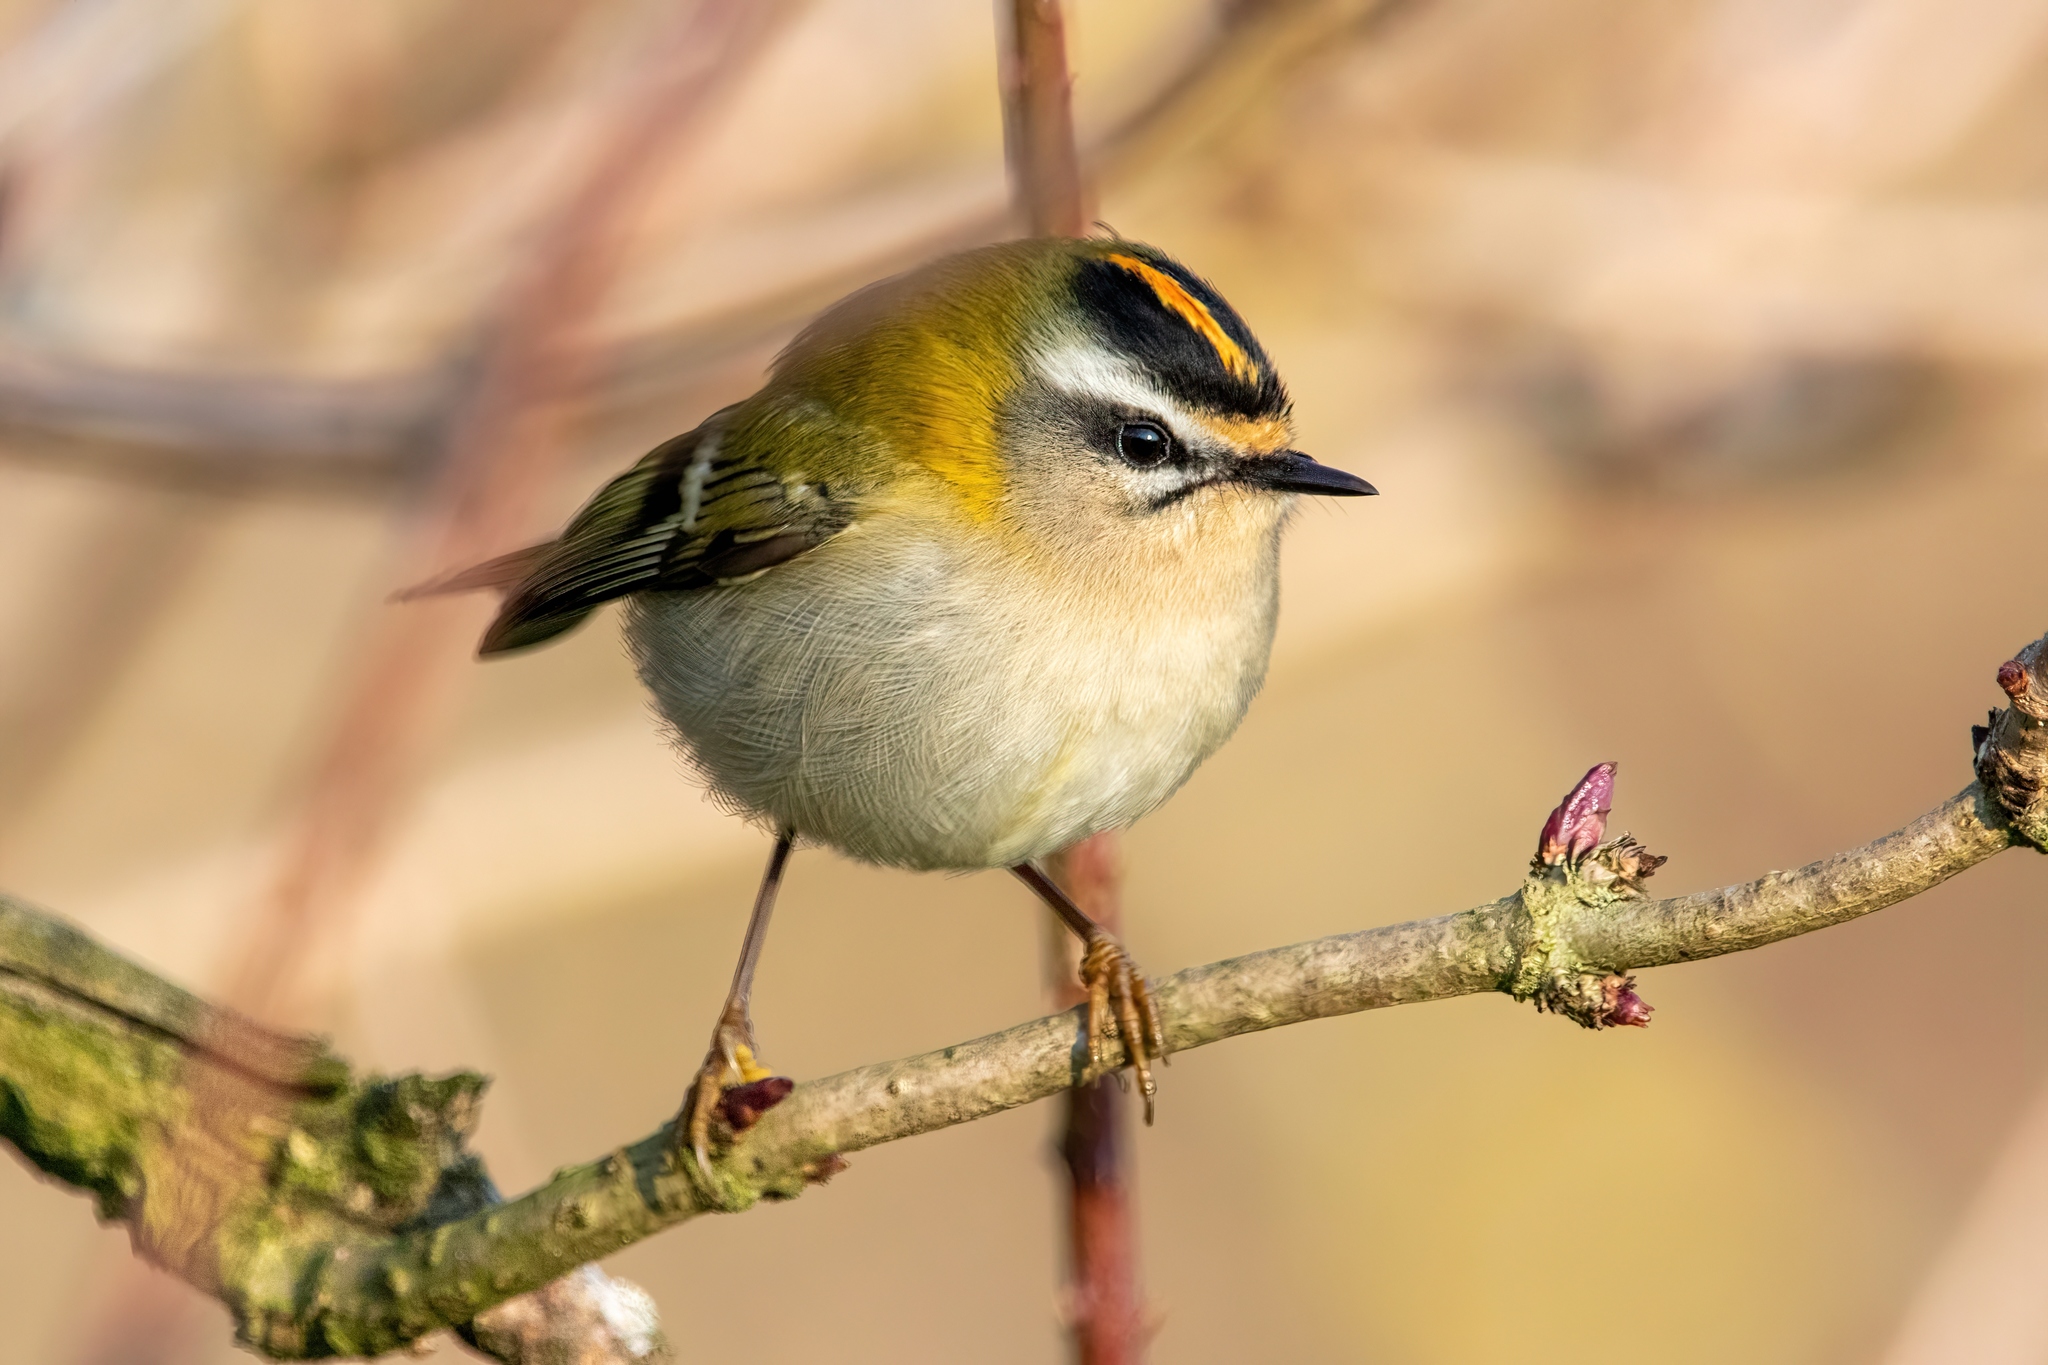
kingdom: Animalia
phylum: Chordata
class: Aves
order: Passeriformes
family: Regulidae
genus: Regulus
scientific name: Regulus ignicapilla
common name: Firecrest
